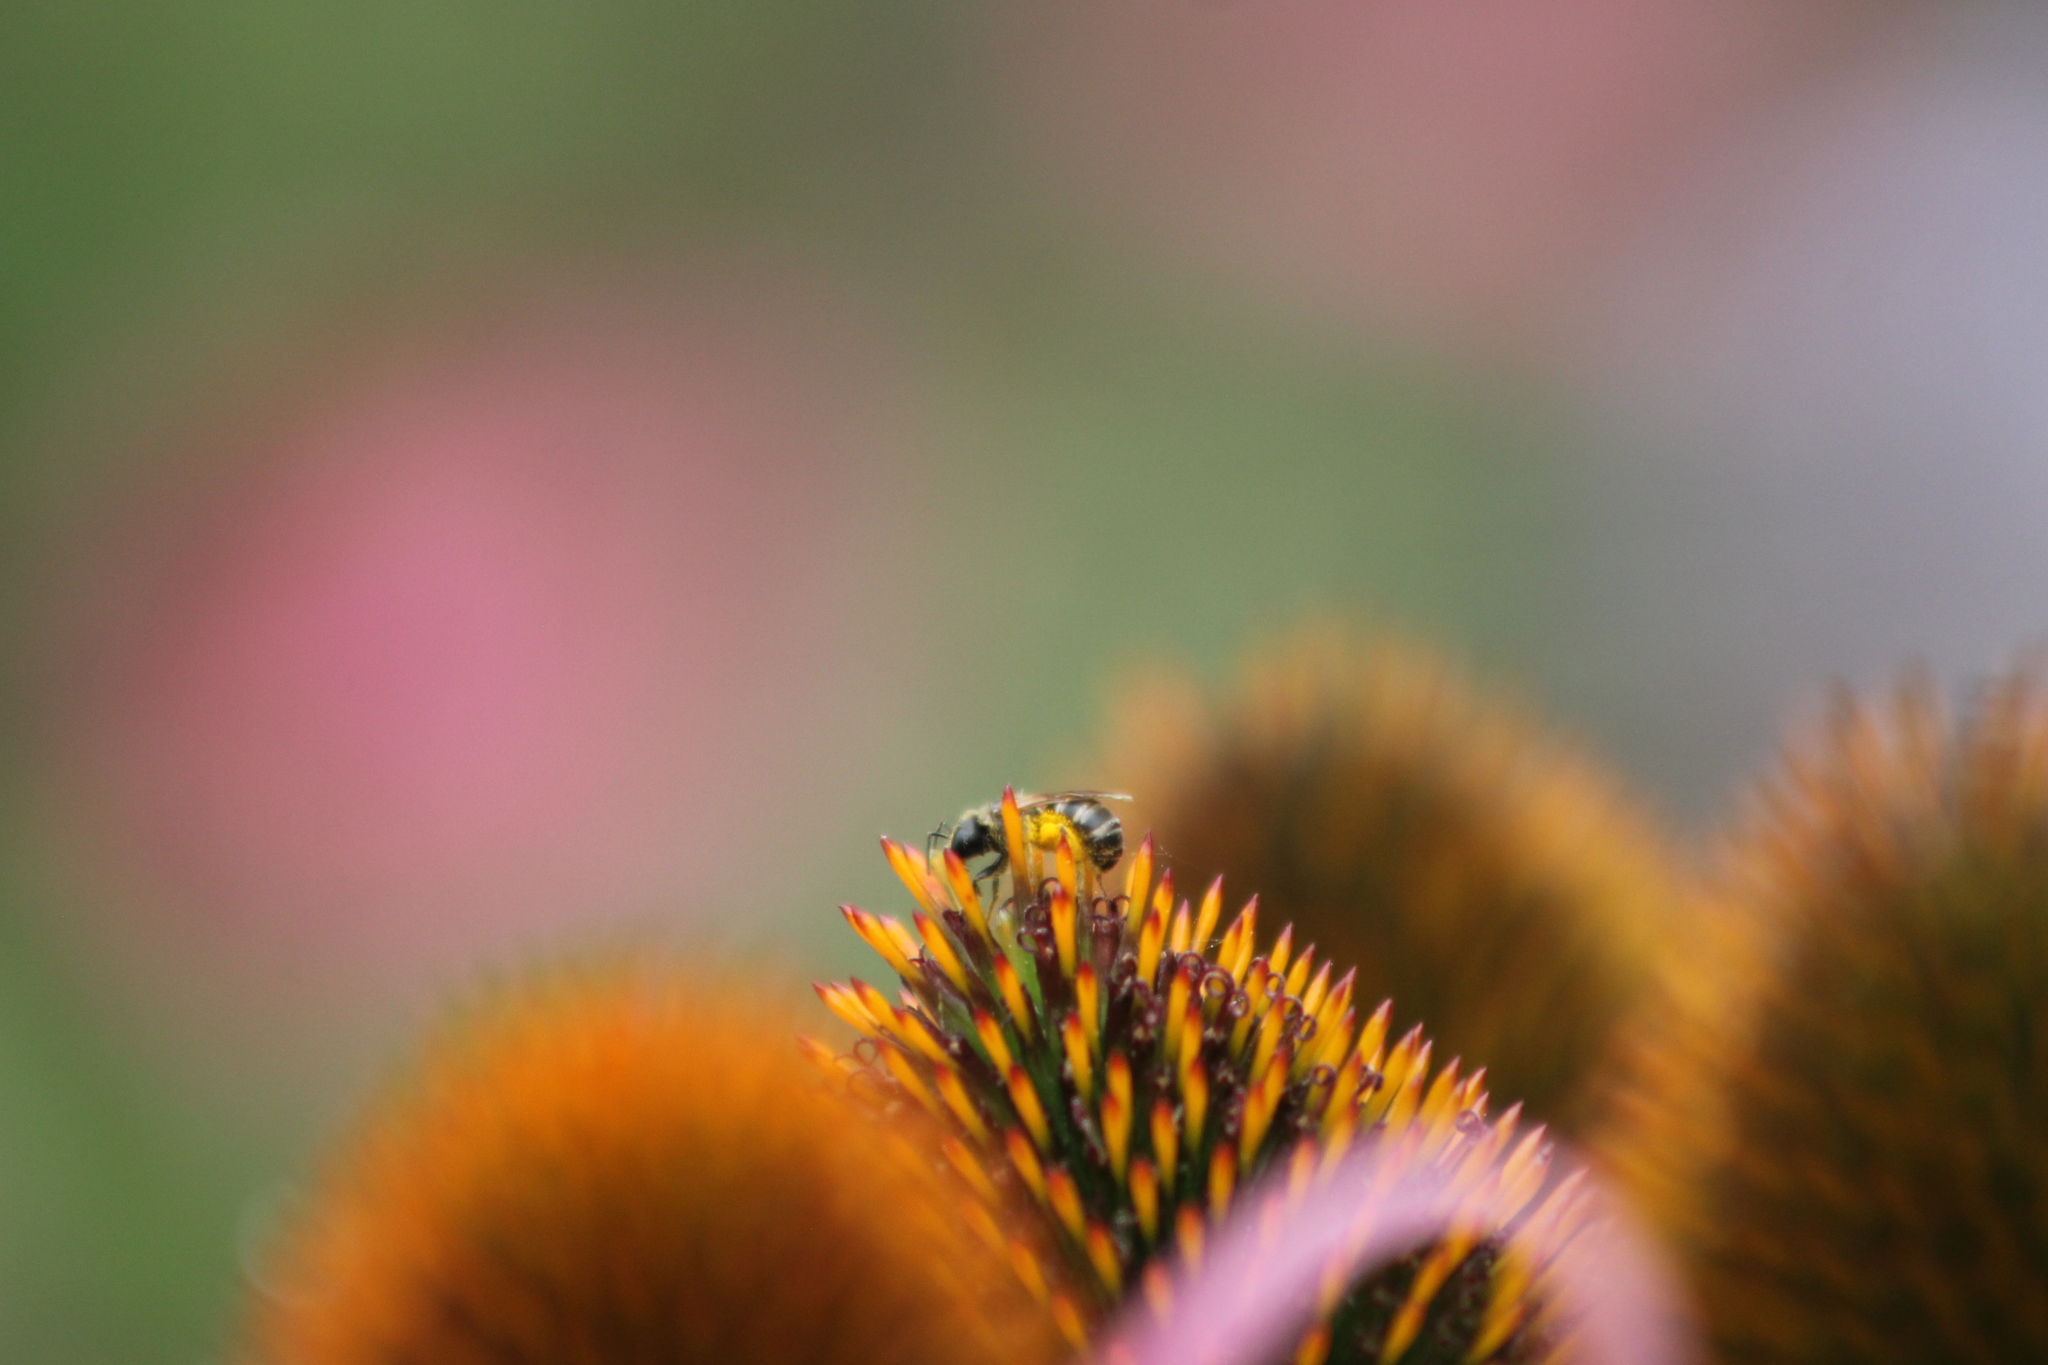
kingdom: Animalia
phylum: Arthropoda
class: Insecta
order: Hymenoptera
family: Halictidae
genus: Halictus
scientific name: Halictus ligatus
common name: Ligated furrow bee
